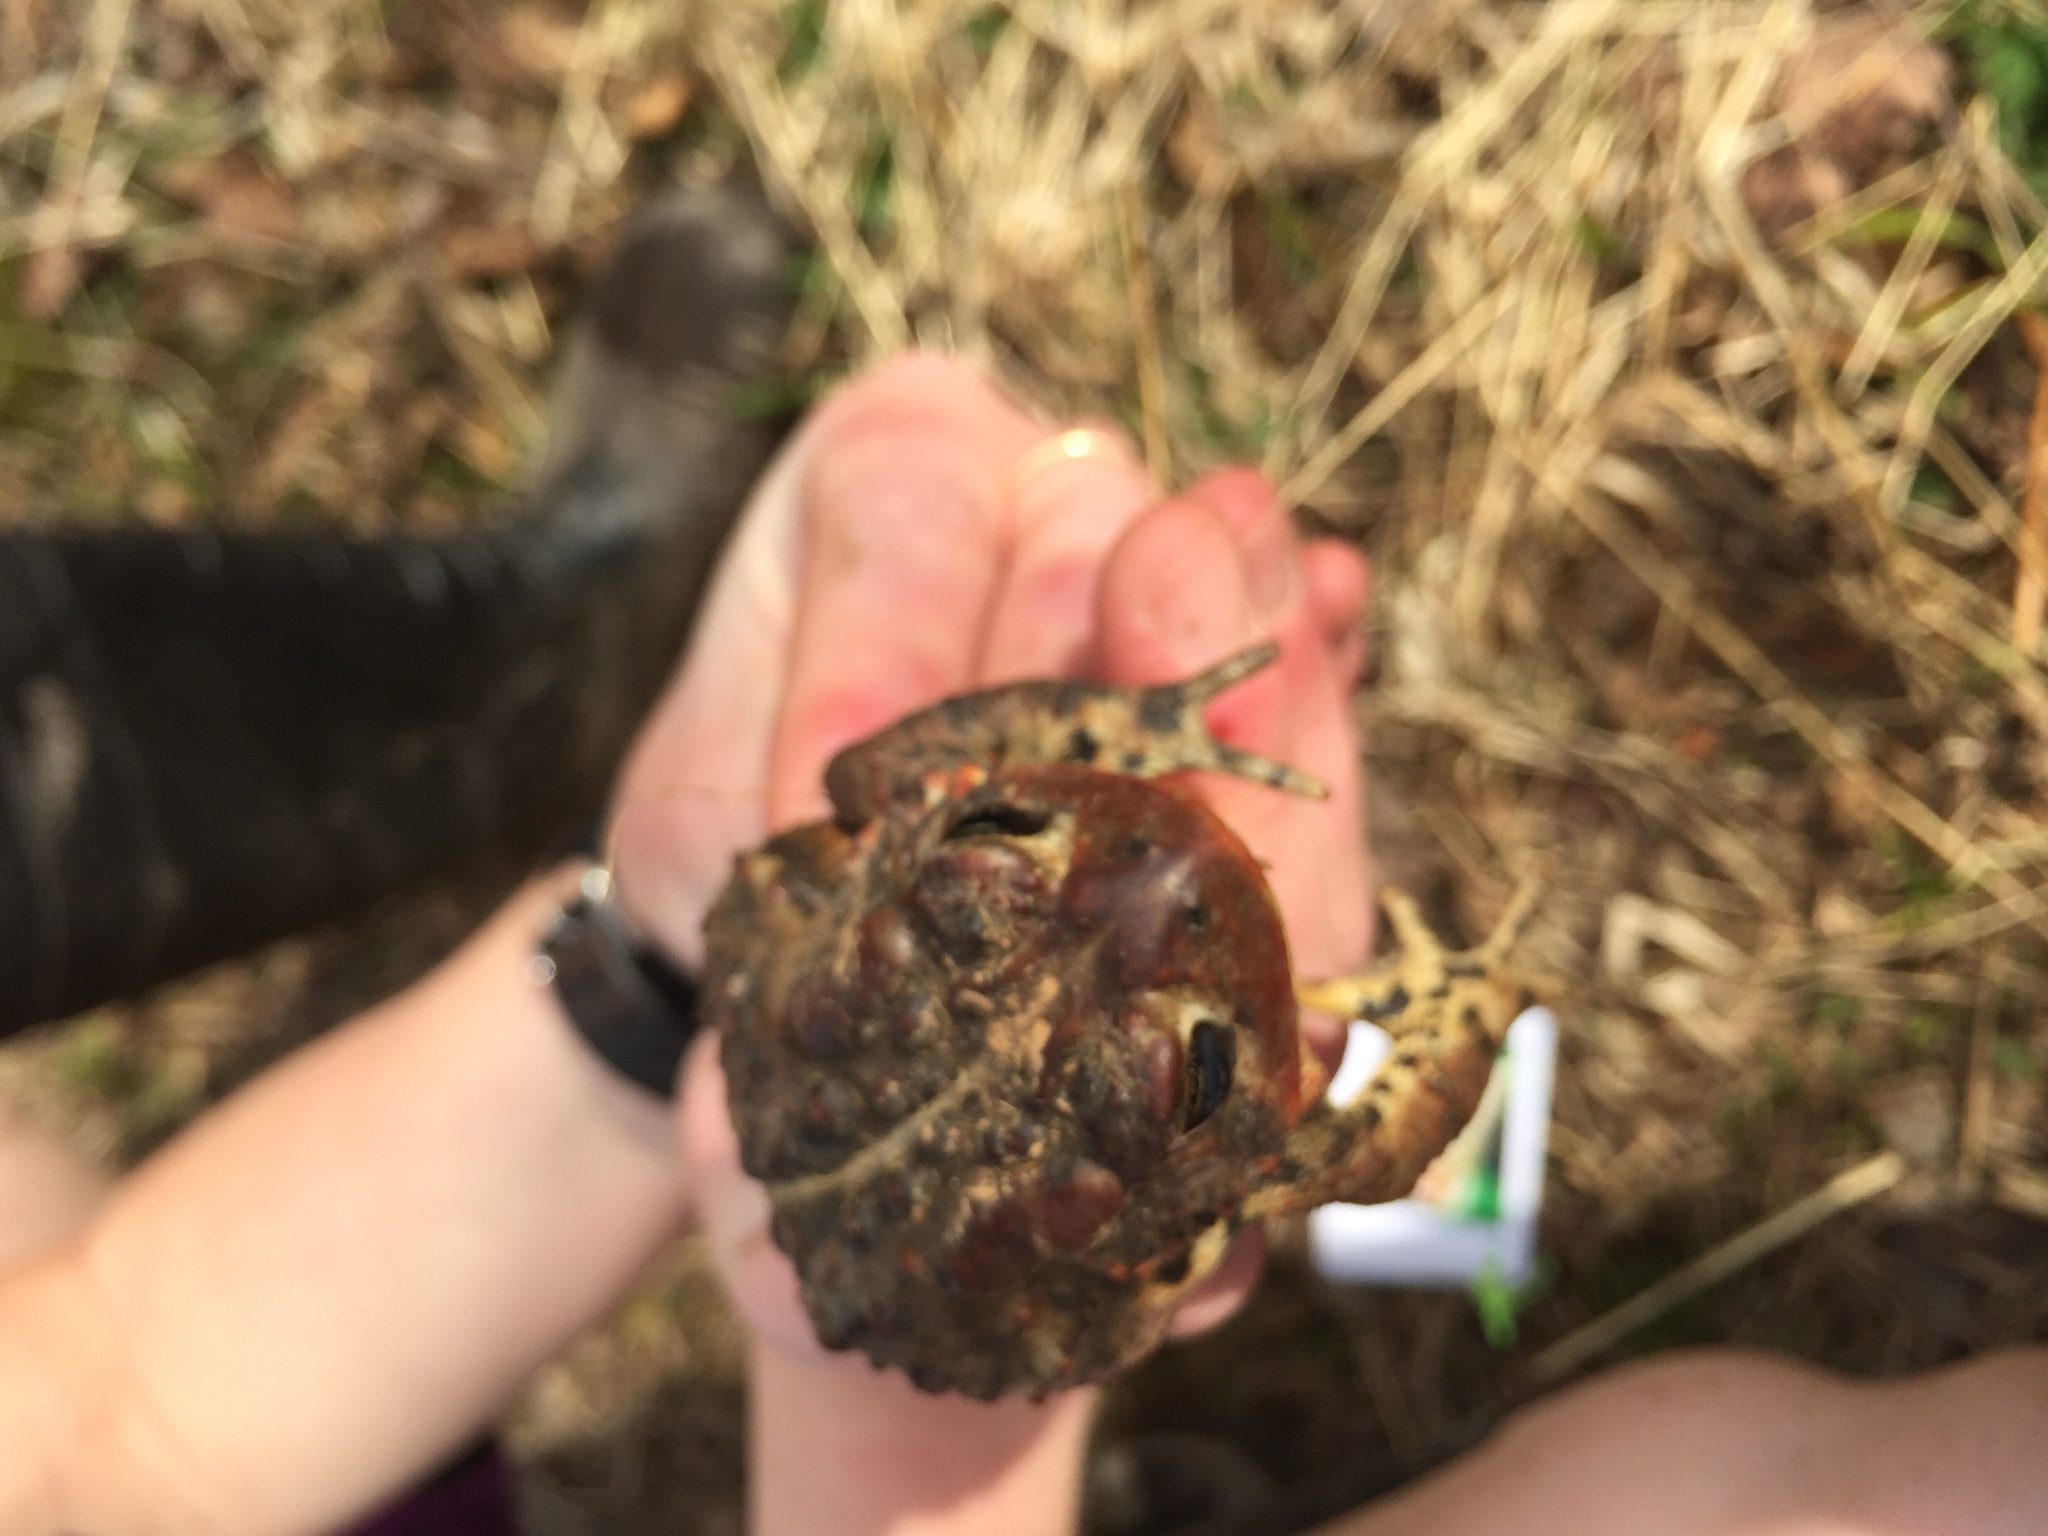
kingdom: Animalia
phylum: Chordata
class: Amphibia
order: Anura
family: Bufonidae
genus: Anaxyrus
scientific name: Anaxyrus americanus
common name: American toad
